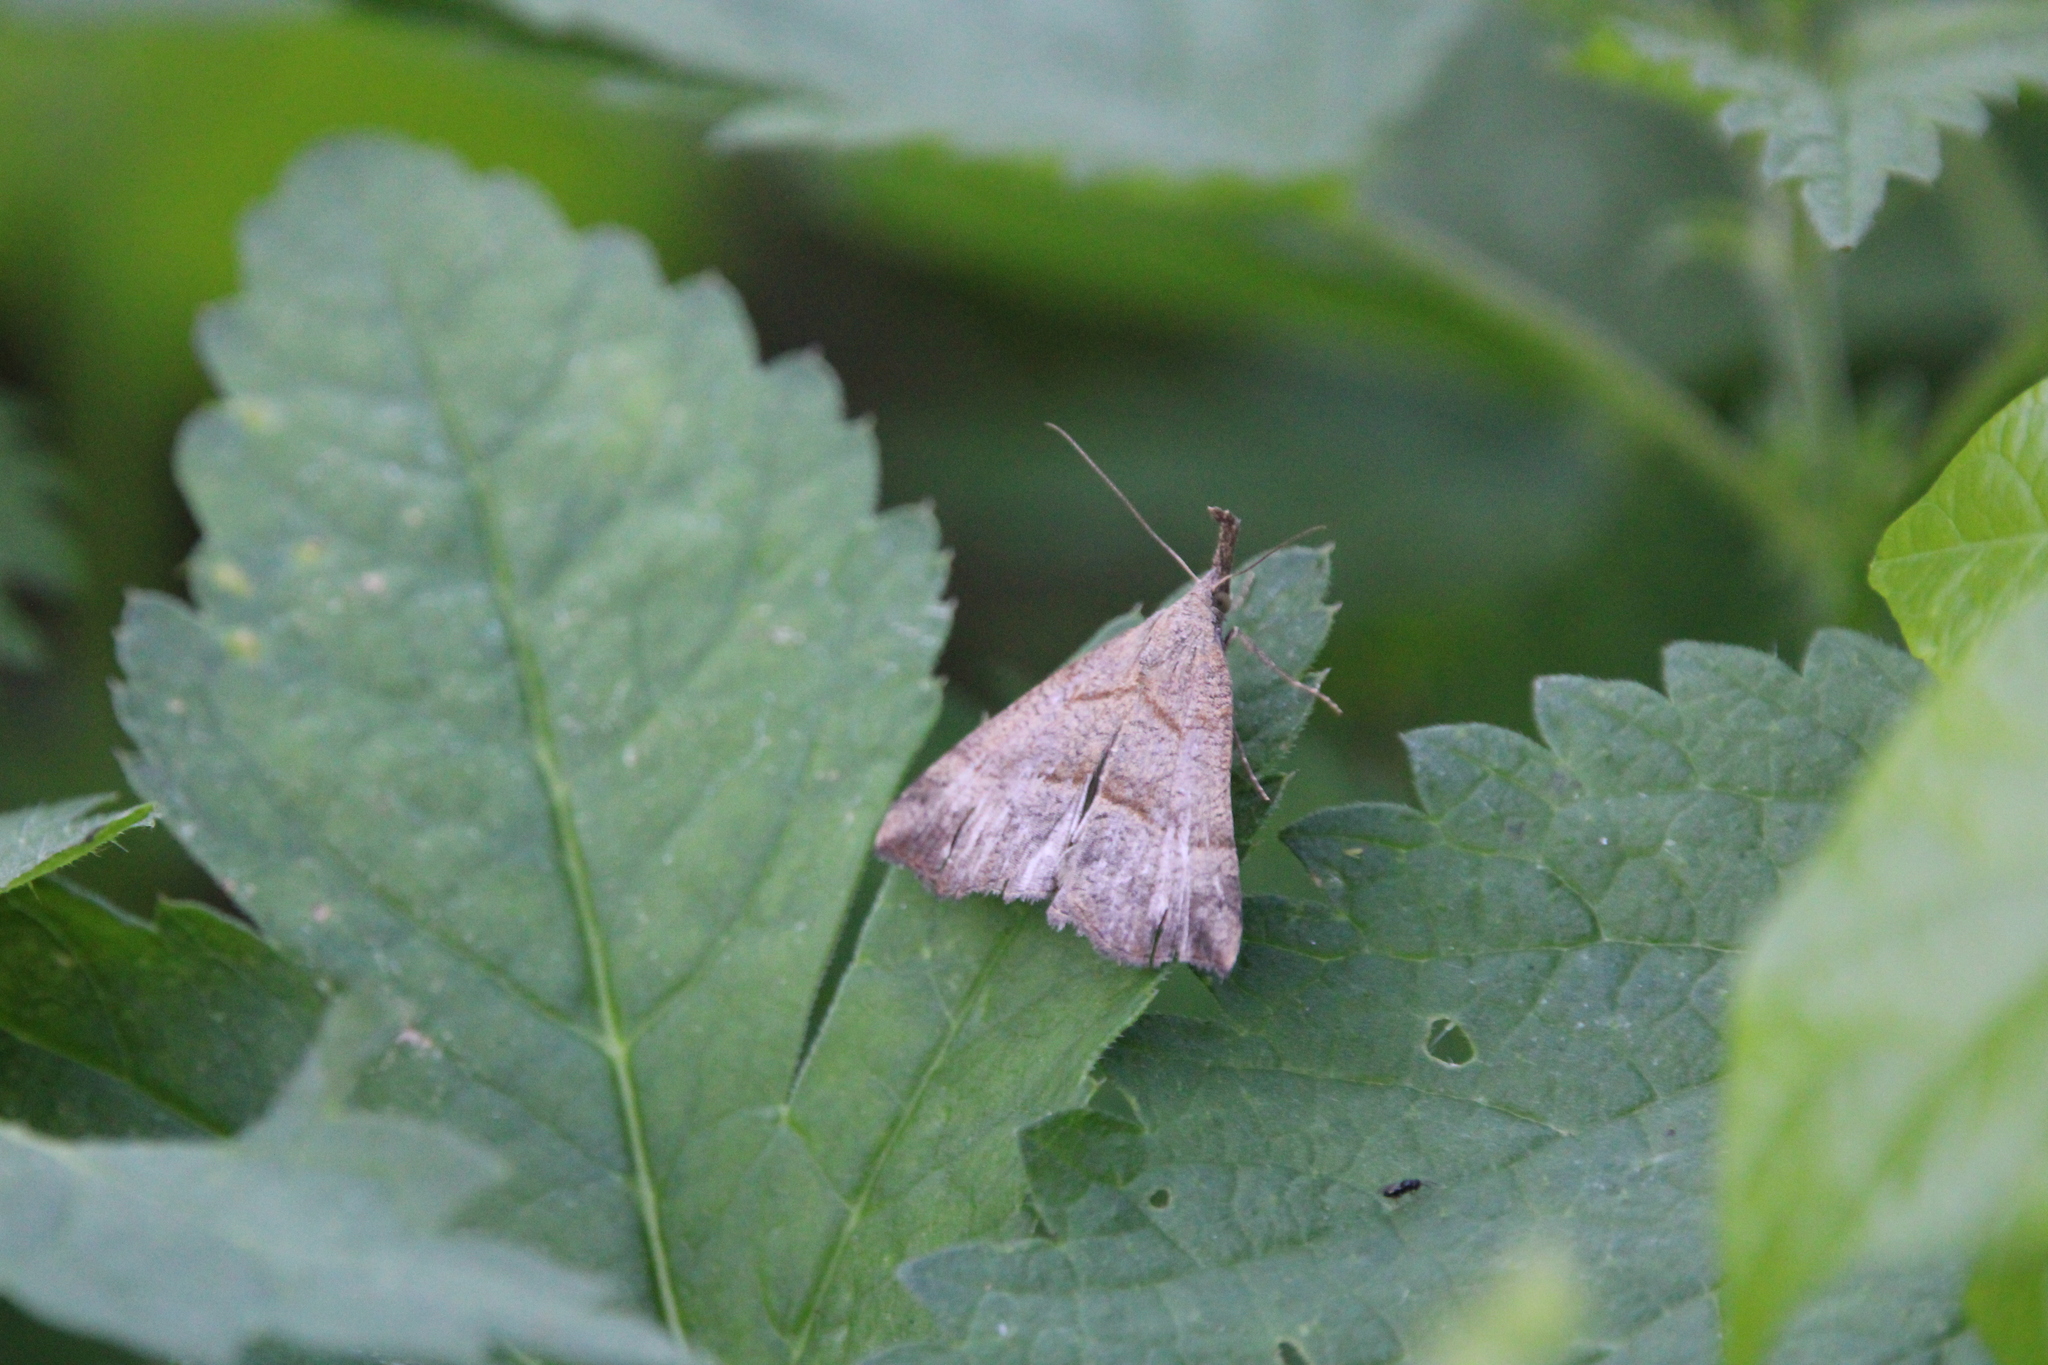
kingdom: Animalia
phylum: Arthropoda
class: Insecta
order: Lepidoptera
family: Erebidae
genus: Hypena
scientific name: Hypena proboscidalis
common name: Snout
